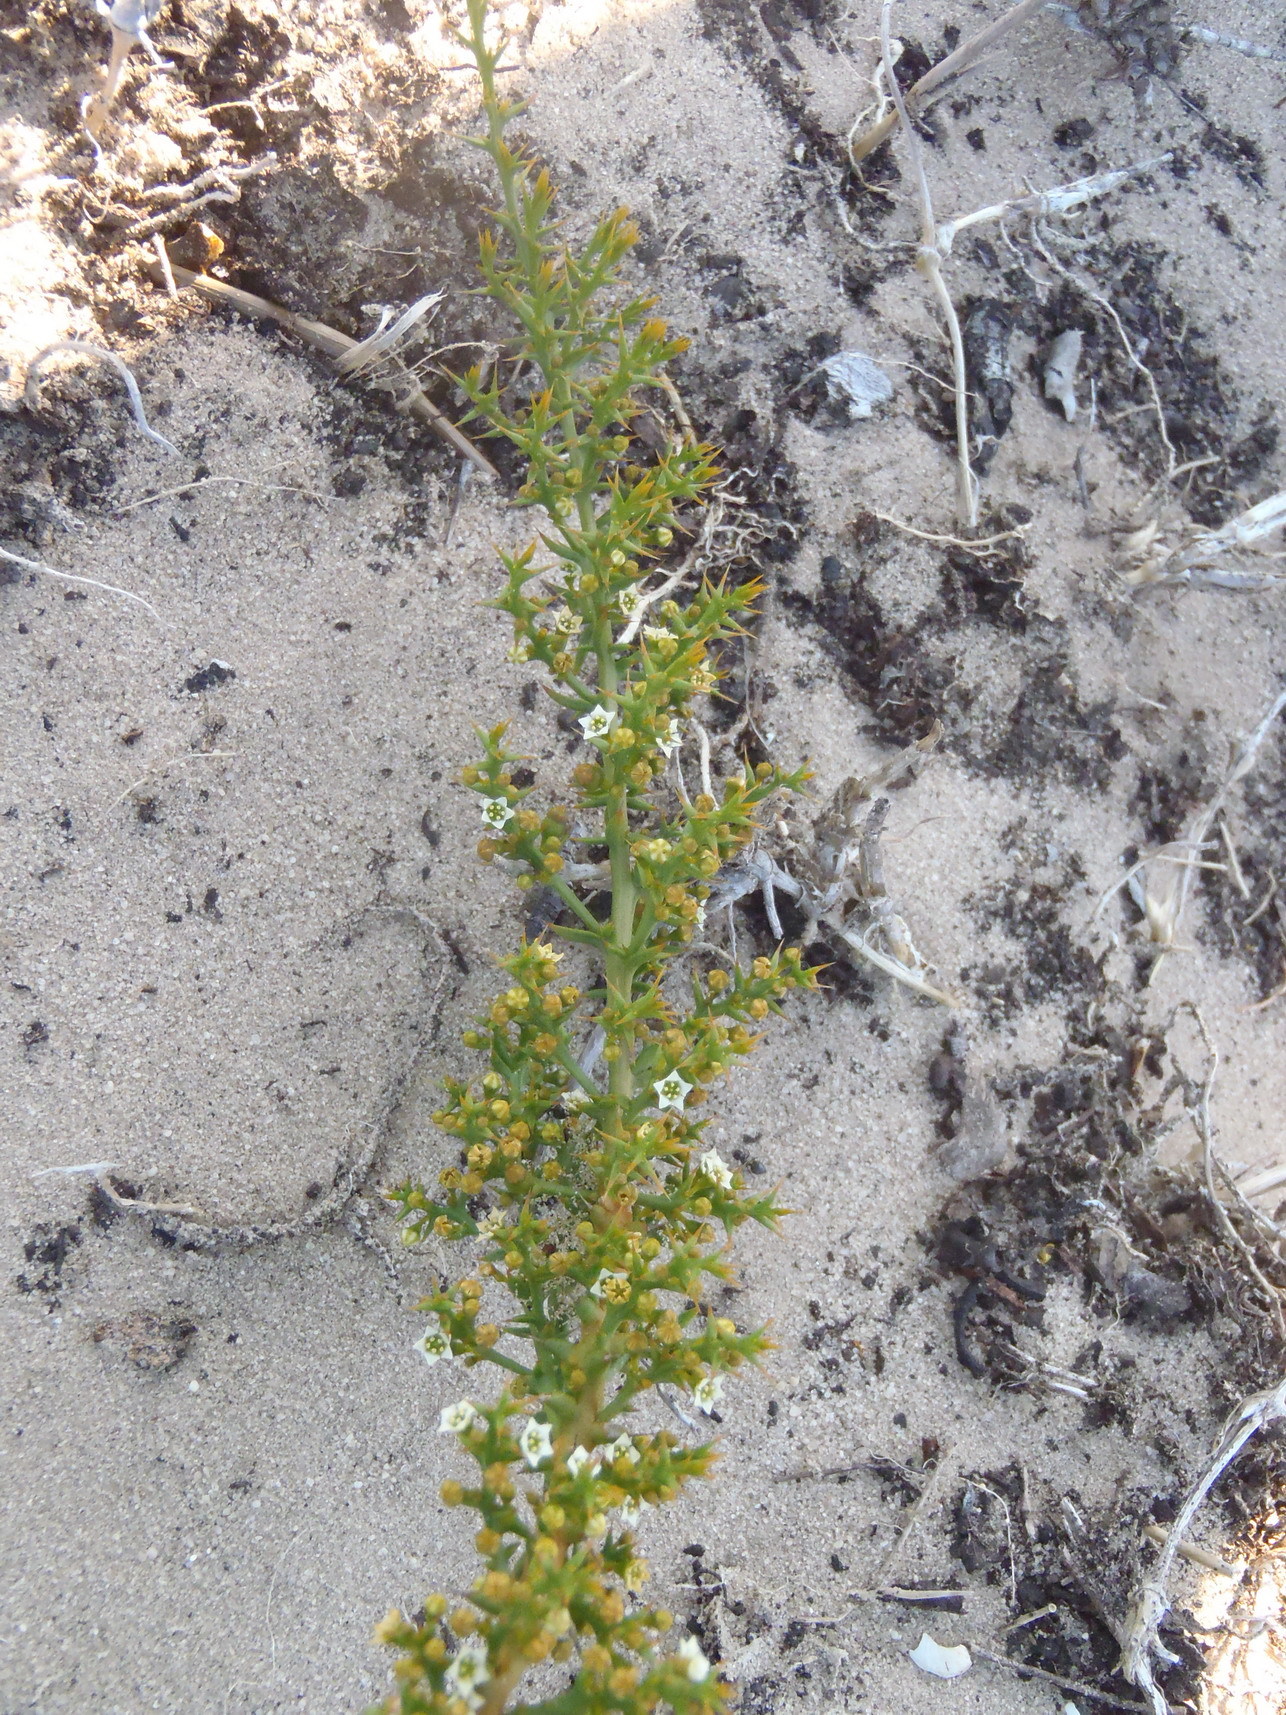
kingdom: Plantae
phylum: Tracheophyta
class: Magnoliopsida
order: Santalales
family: Thesiaceae
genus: Thesium
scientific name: Thesium spinosum
